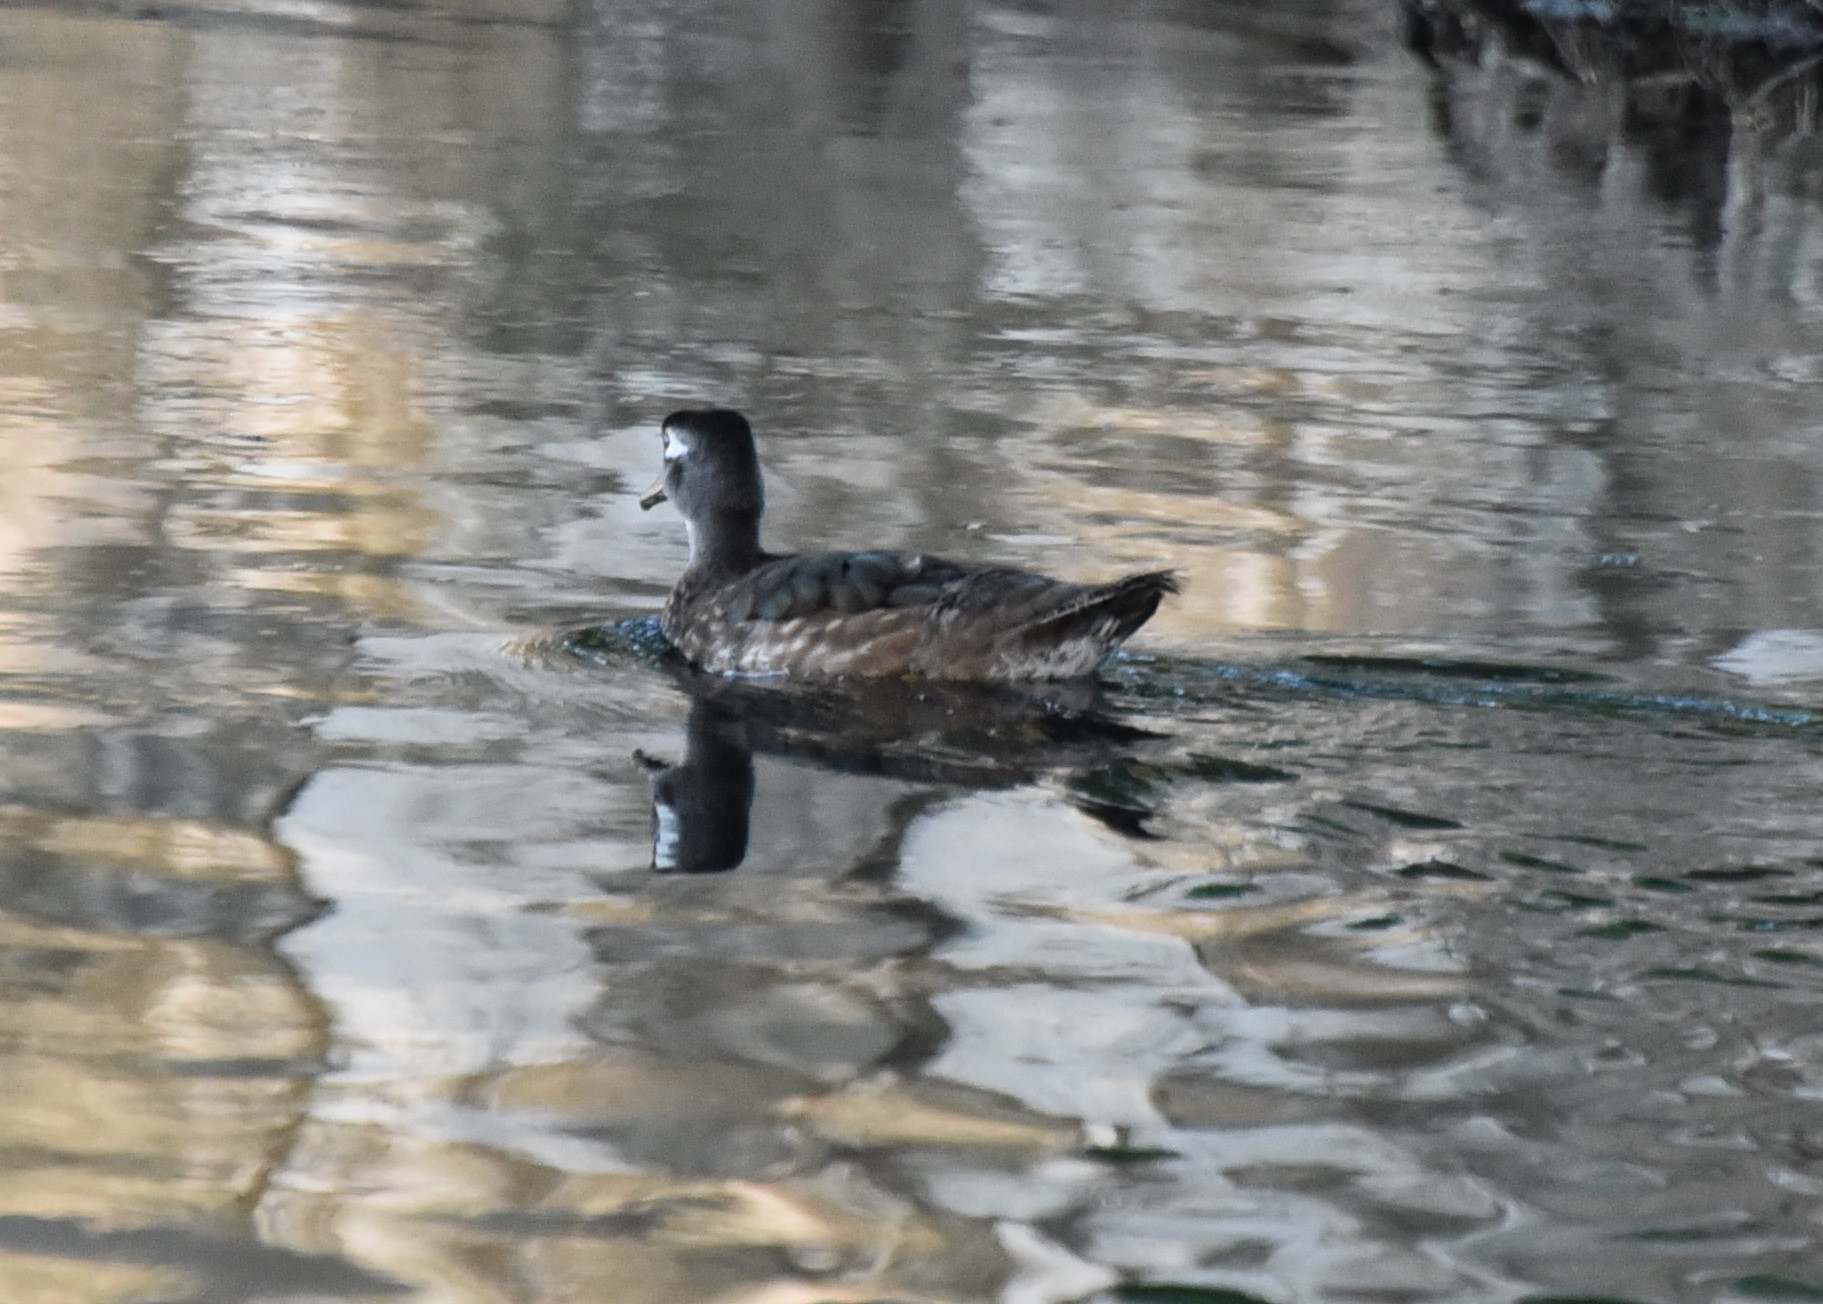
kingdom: Animalia
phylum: Chordata
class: Aves
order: Anseriformes
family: Anatidae
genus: Aix
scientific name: Aix sponsa
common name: Wood duck
